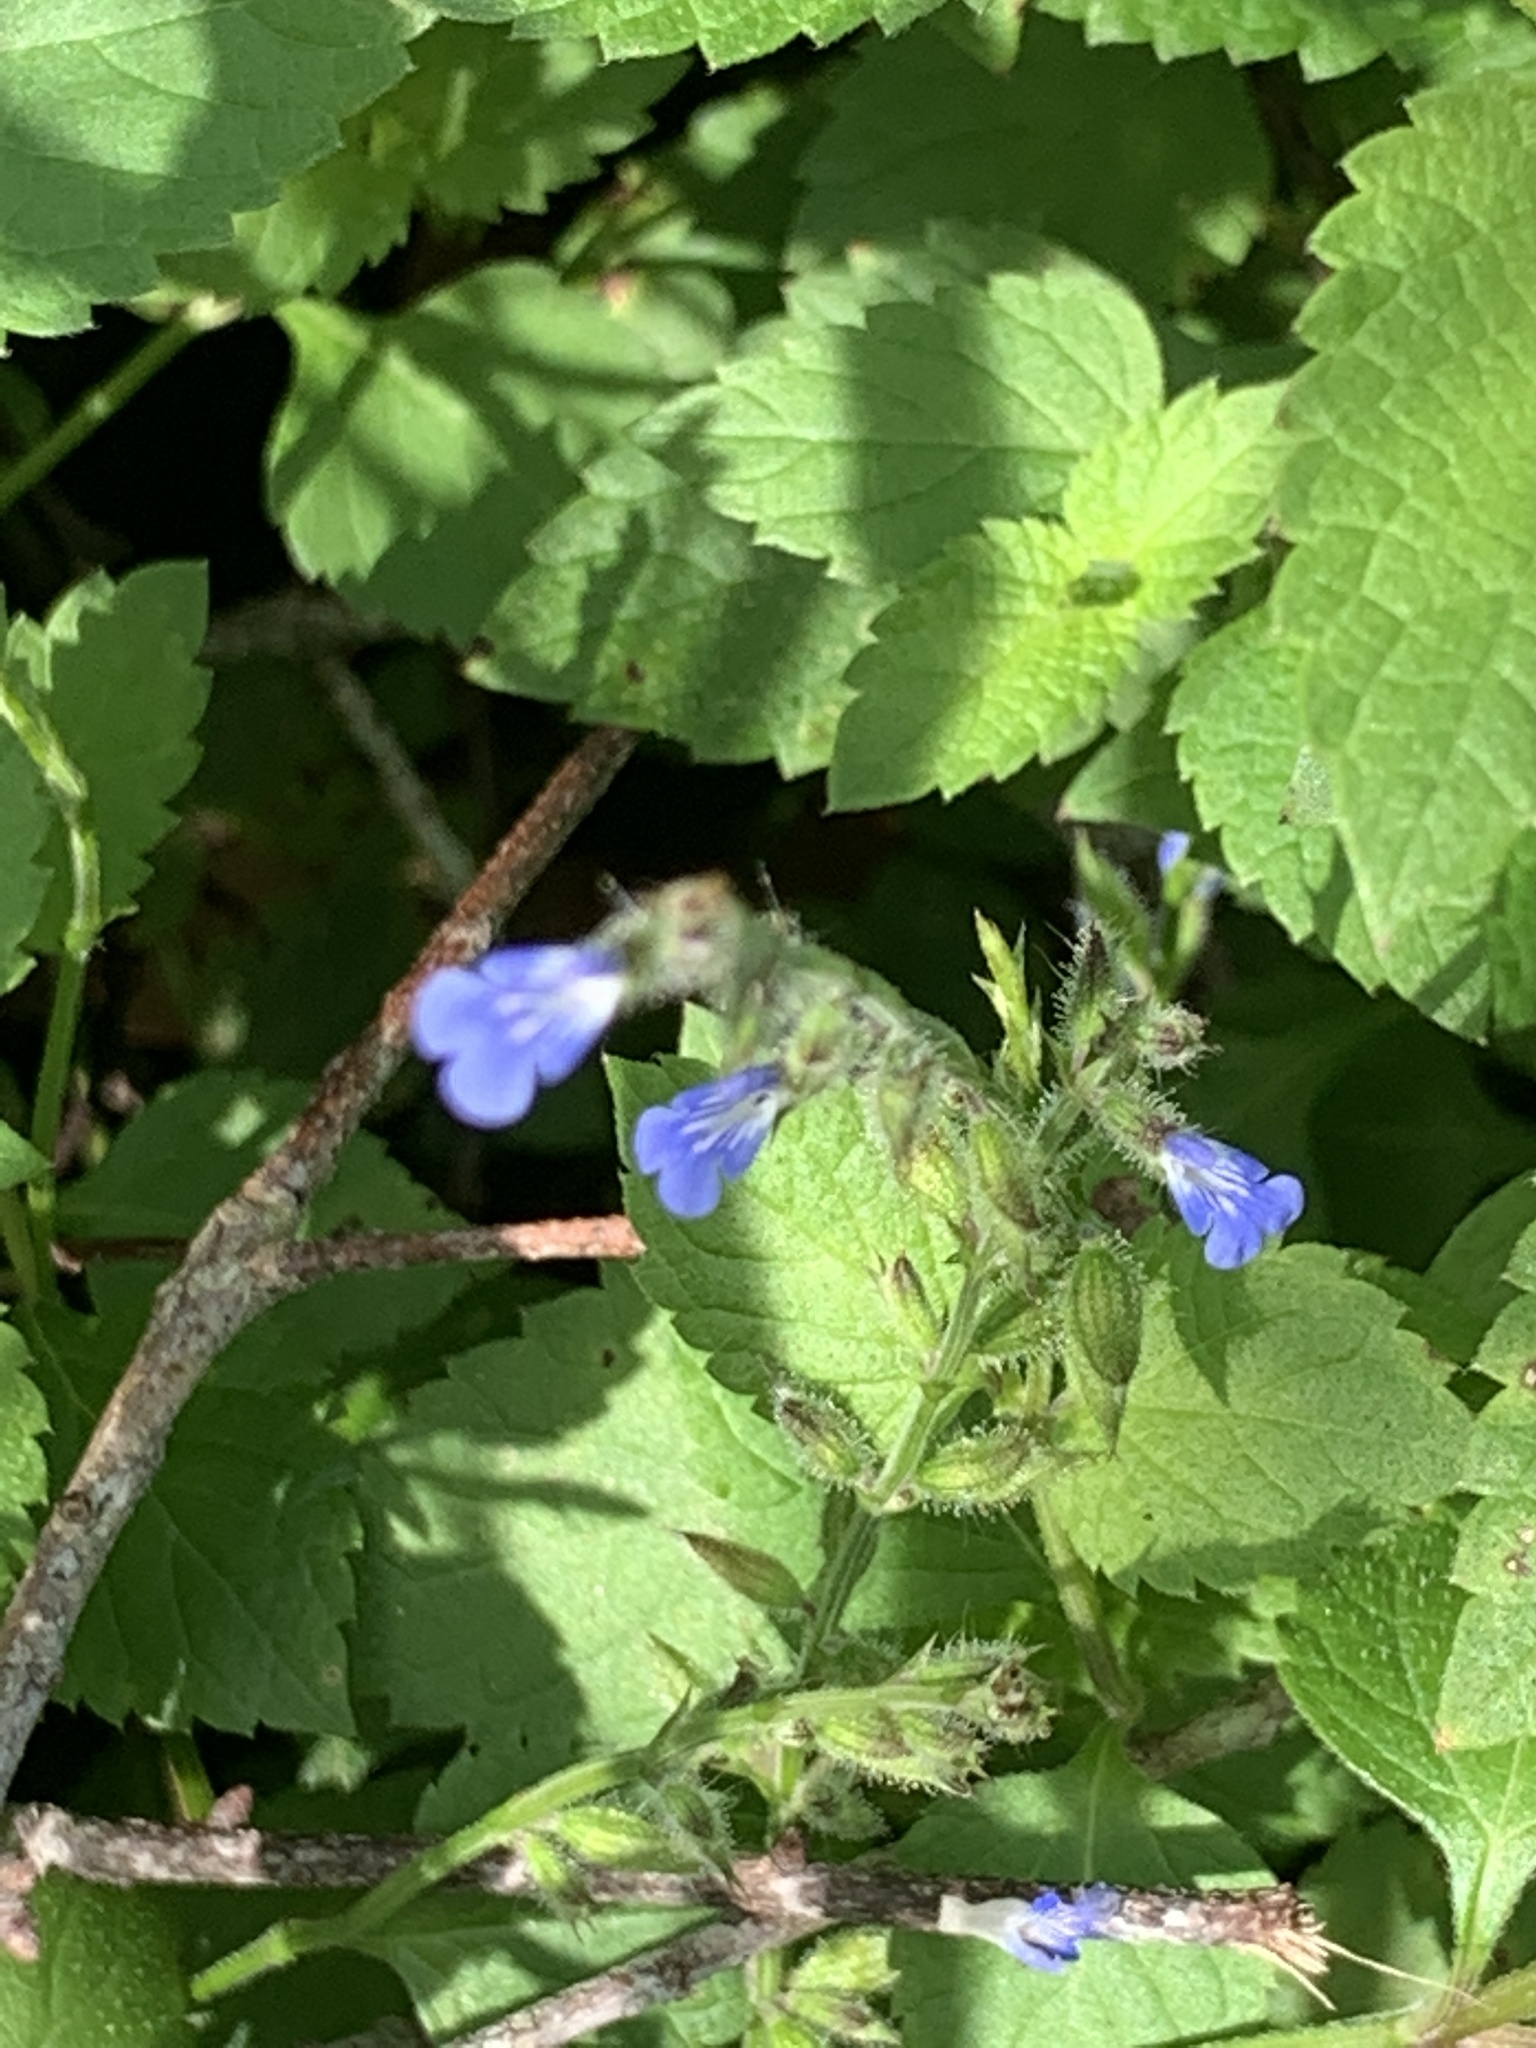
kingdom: Plantae
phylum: Tracheophyta
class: Magnoliopsida
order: Lamiales
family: Lamiaceae
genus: Salvia
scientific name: Salvia misella
